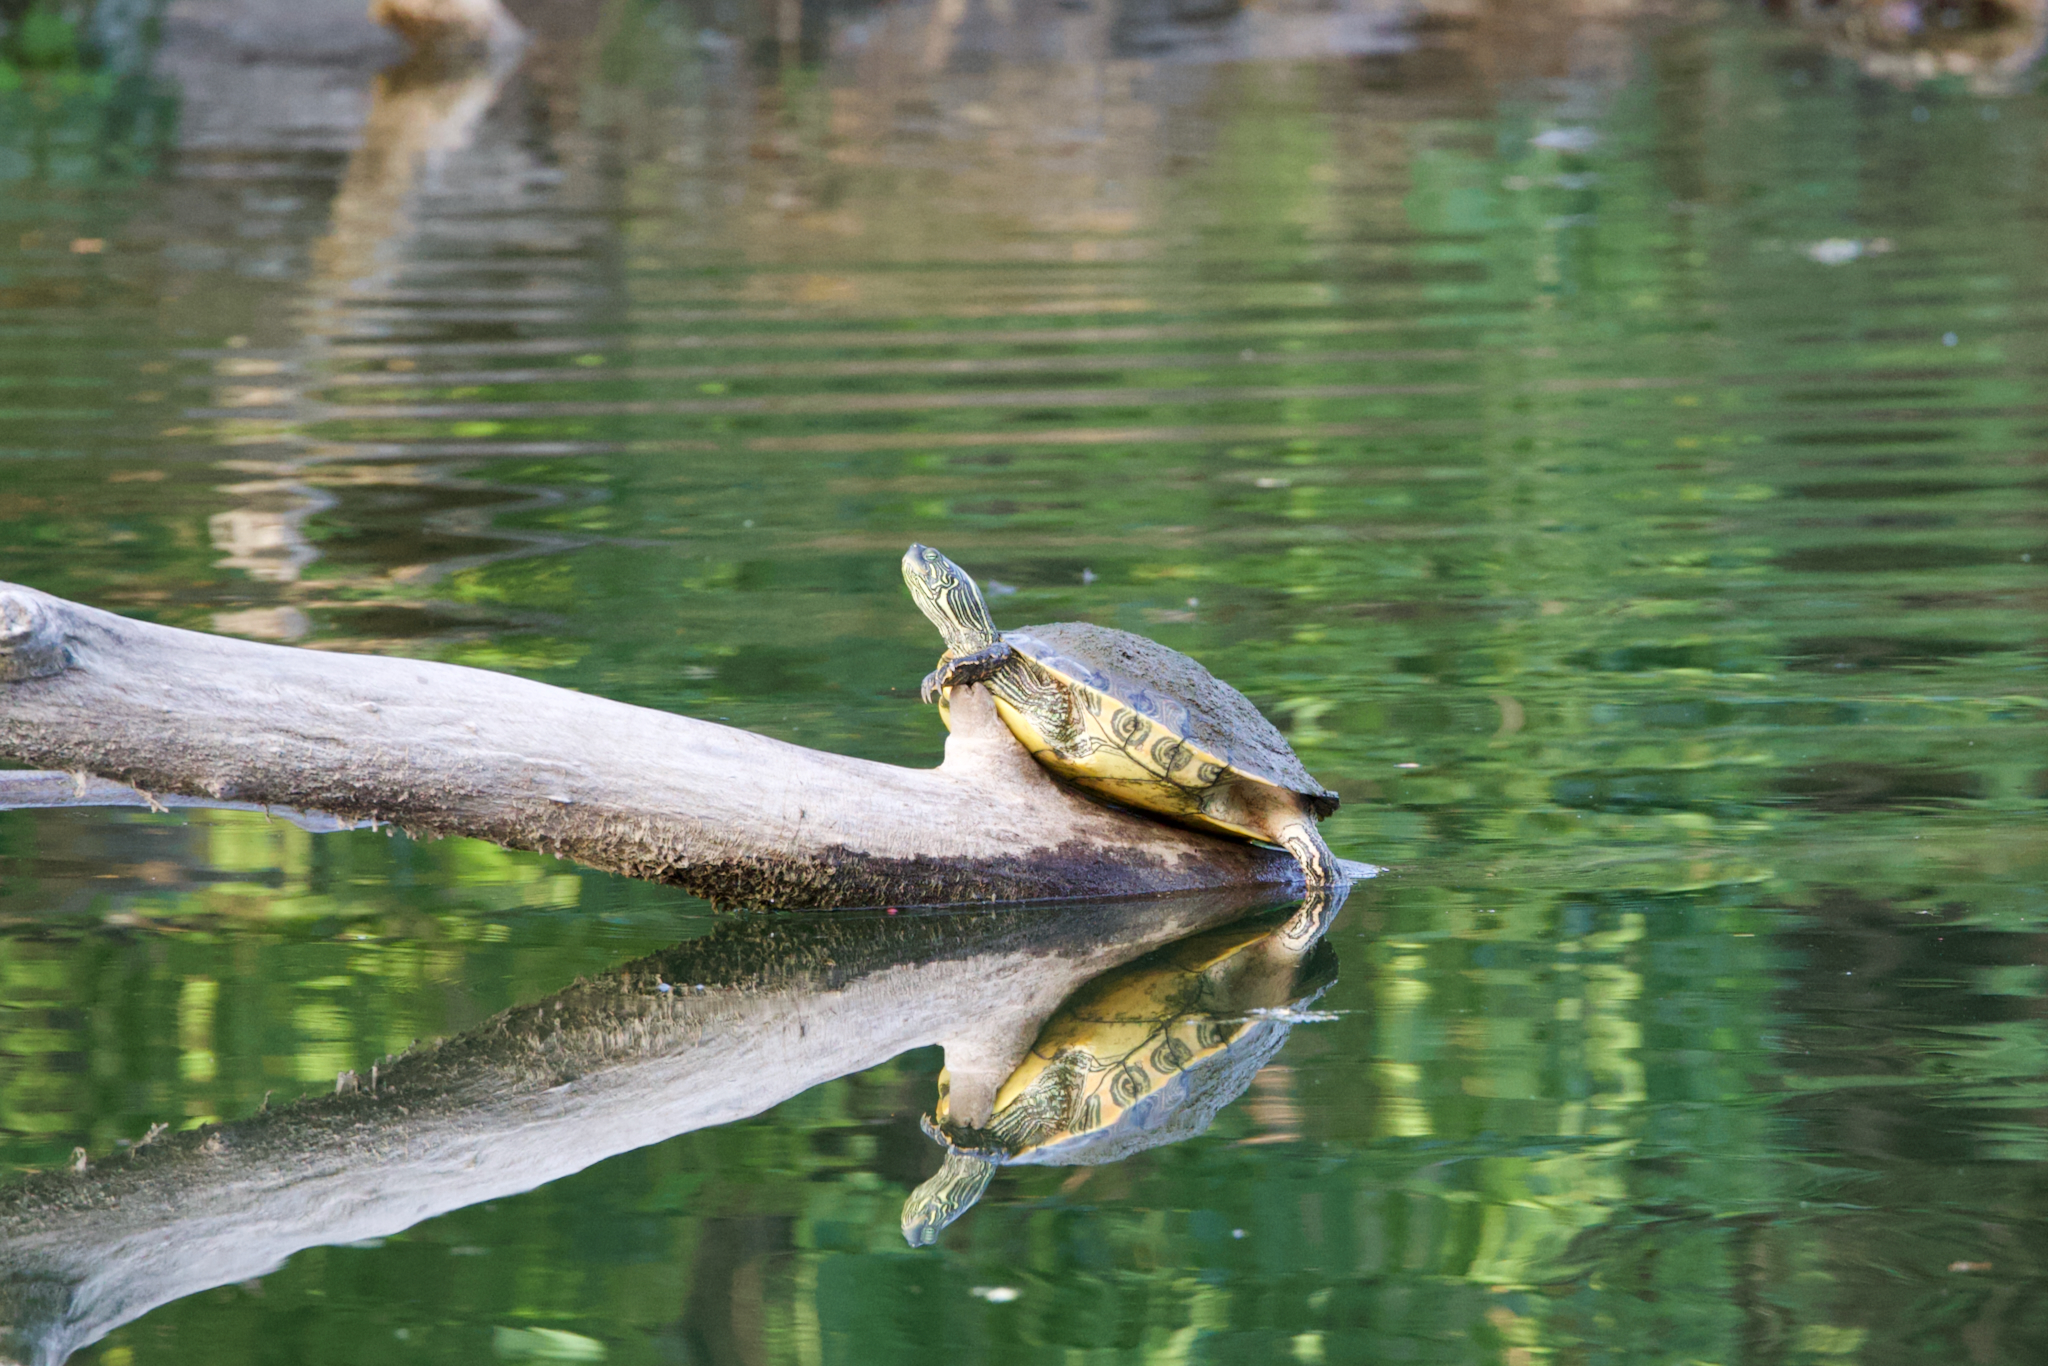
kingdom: Animalia
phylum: Chordata
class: Testudines
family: Emydidae
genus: Pseudemys
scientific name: Pseudemys texana
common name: Texas river cooter
